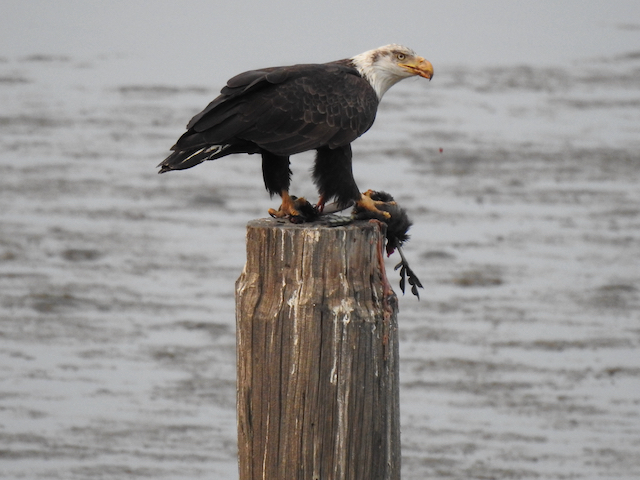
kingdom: Animalia
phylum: Chordata
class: Aves
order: Accipitriformes
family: Accipitridae
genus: Haliaeetus
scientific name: Haliaeetus leucocephalus
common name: Bald eagle
